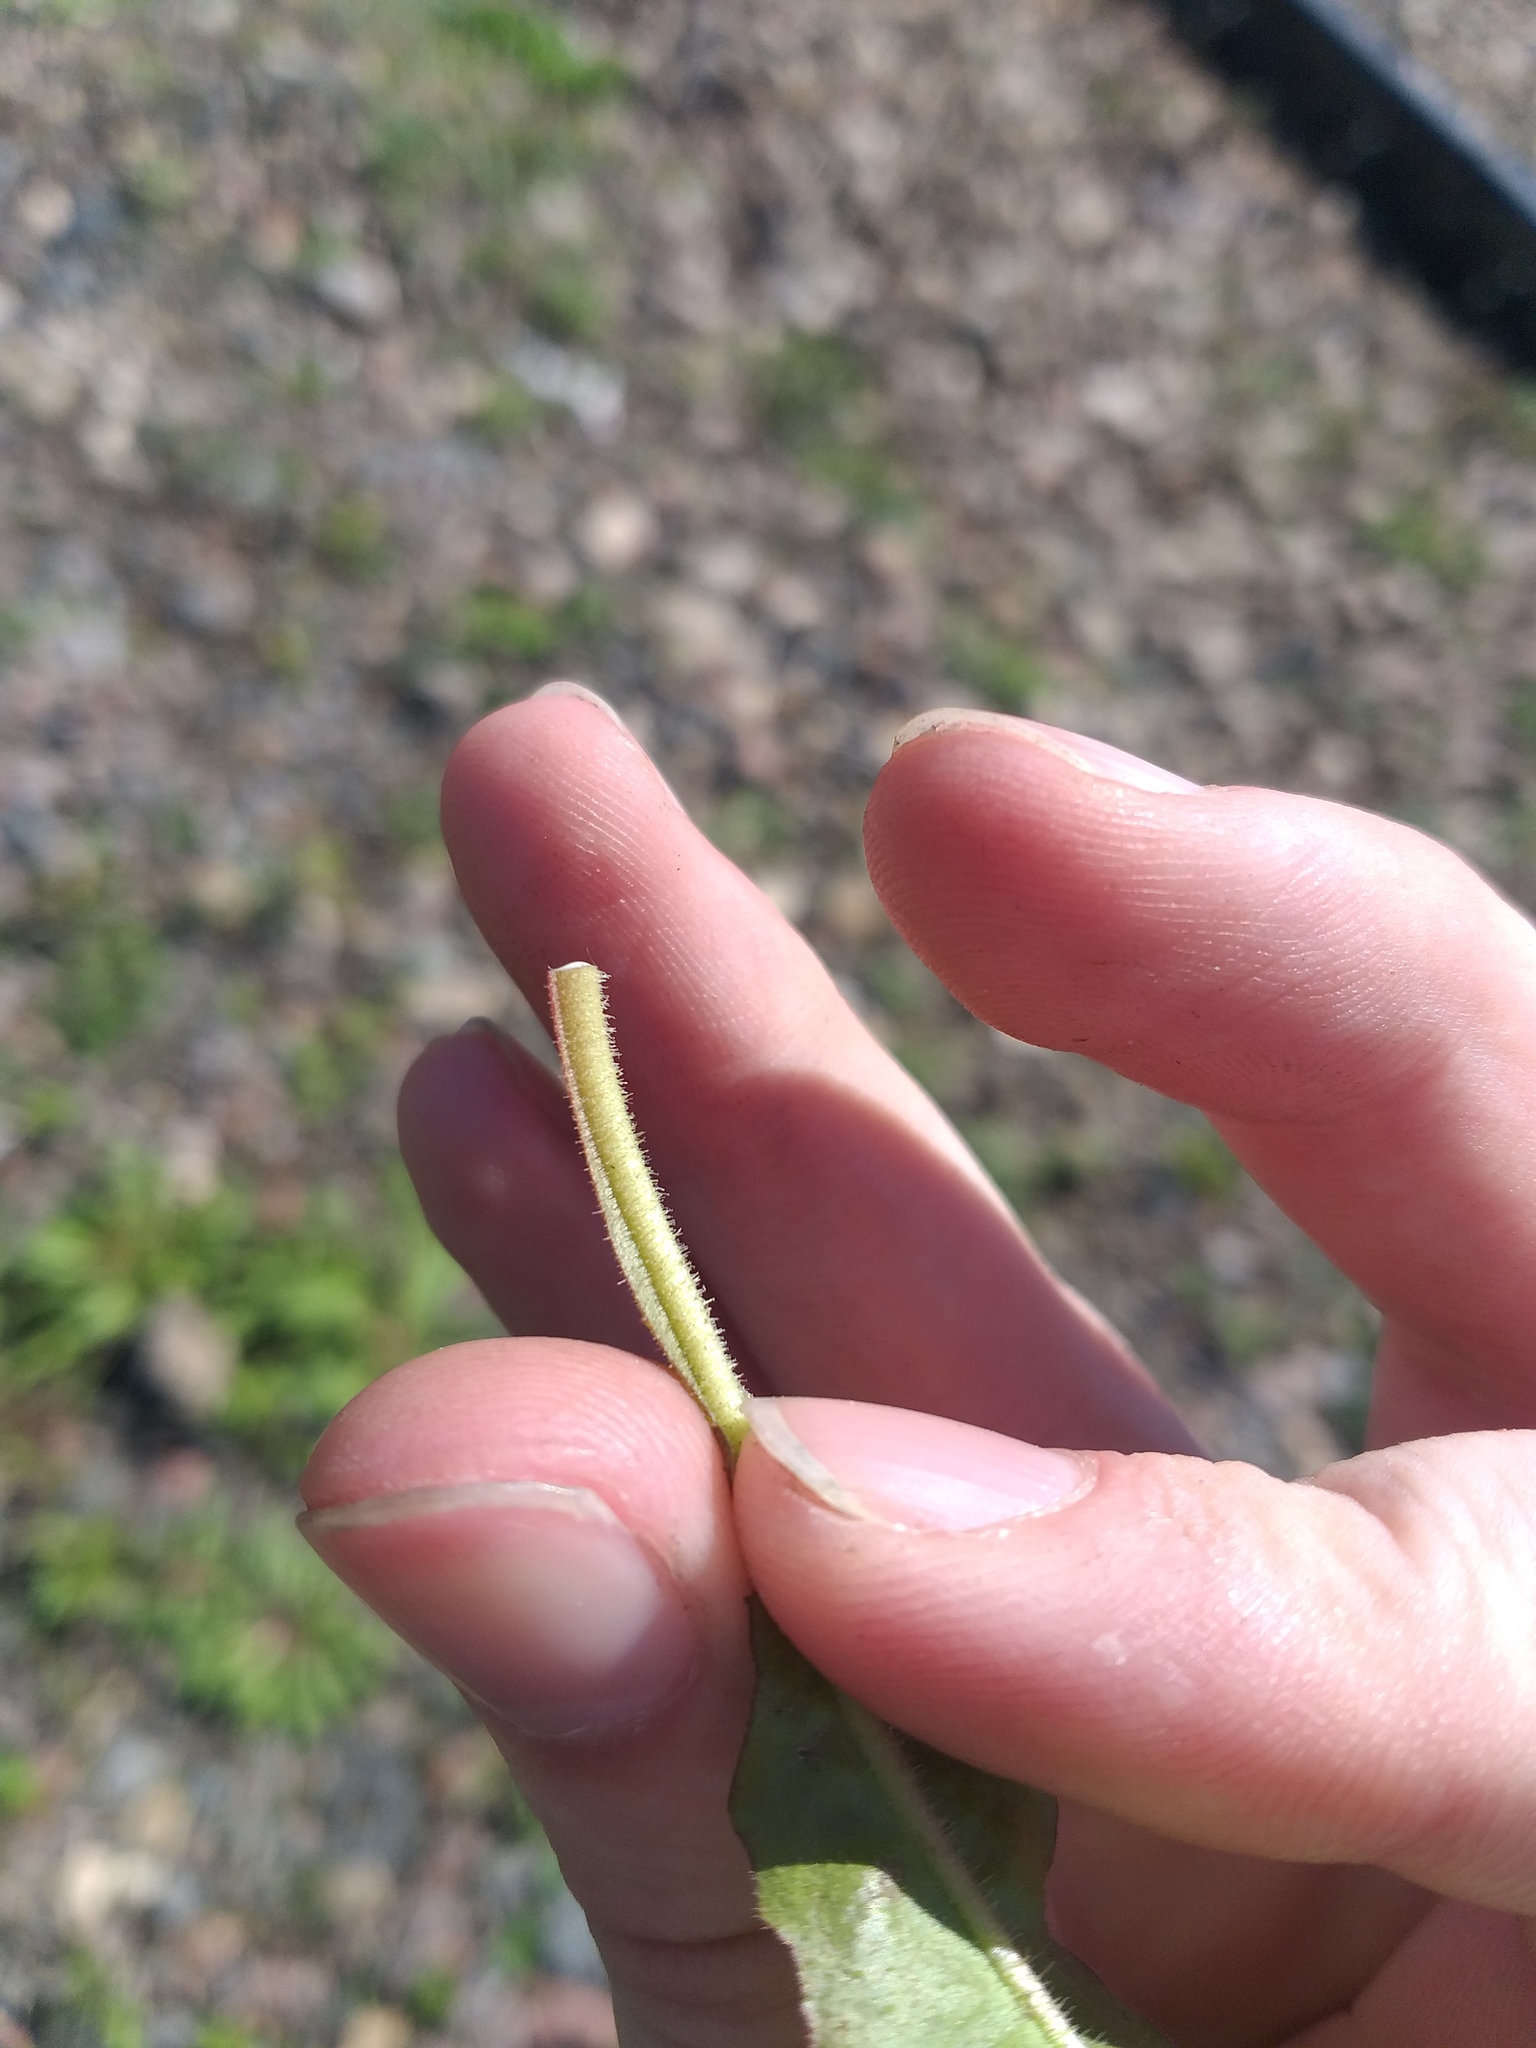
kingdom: Plantae
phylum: Tracheophyta
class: Magnoliopsida
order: Asterales
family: Asteraceae
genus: Picris
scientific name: Picris hieracioides
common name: Hawkweed oxtongue
